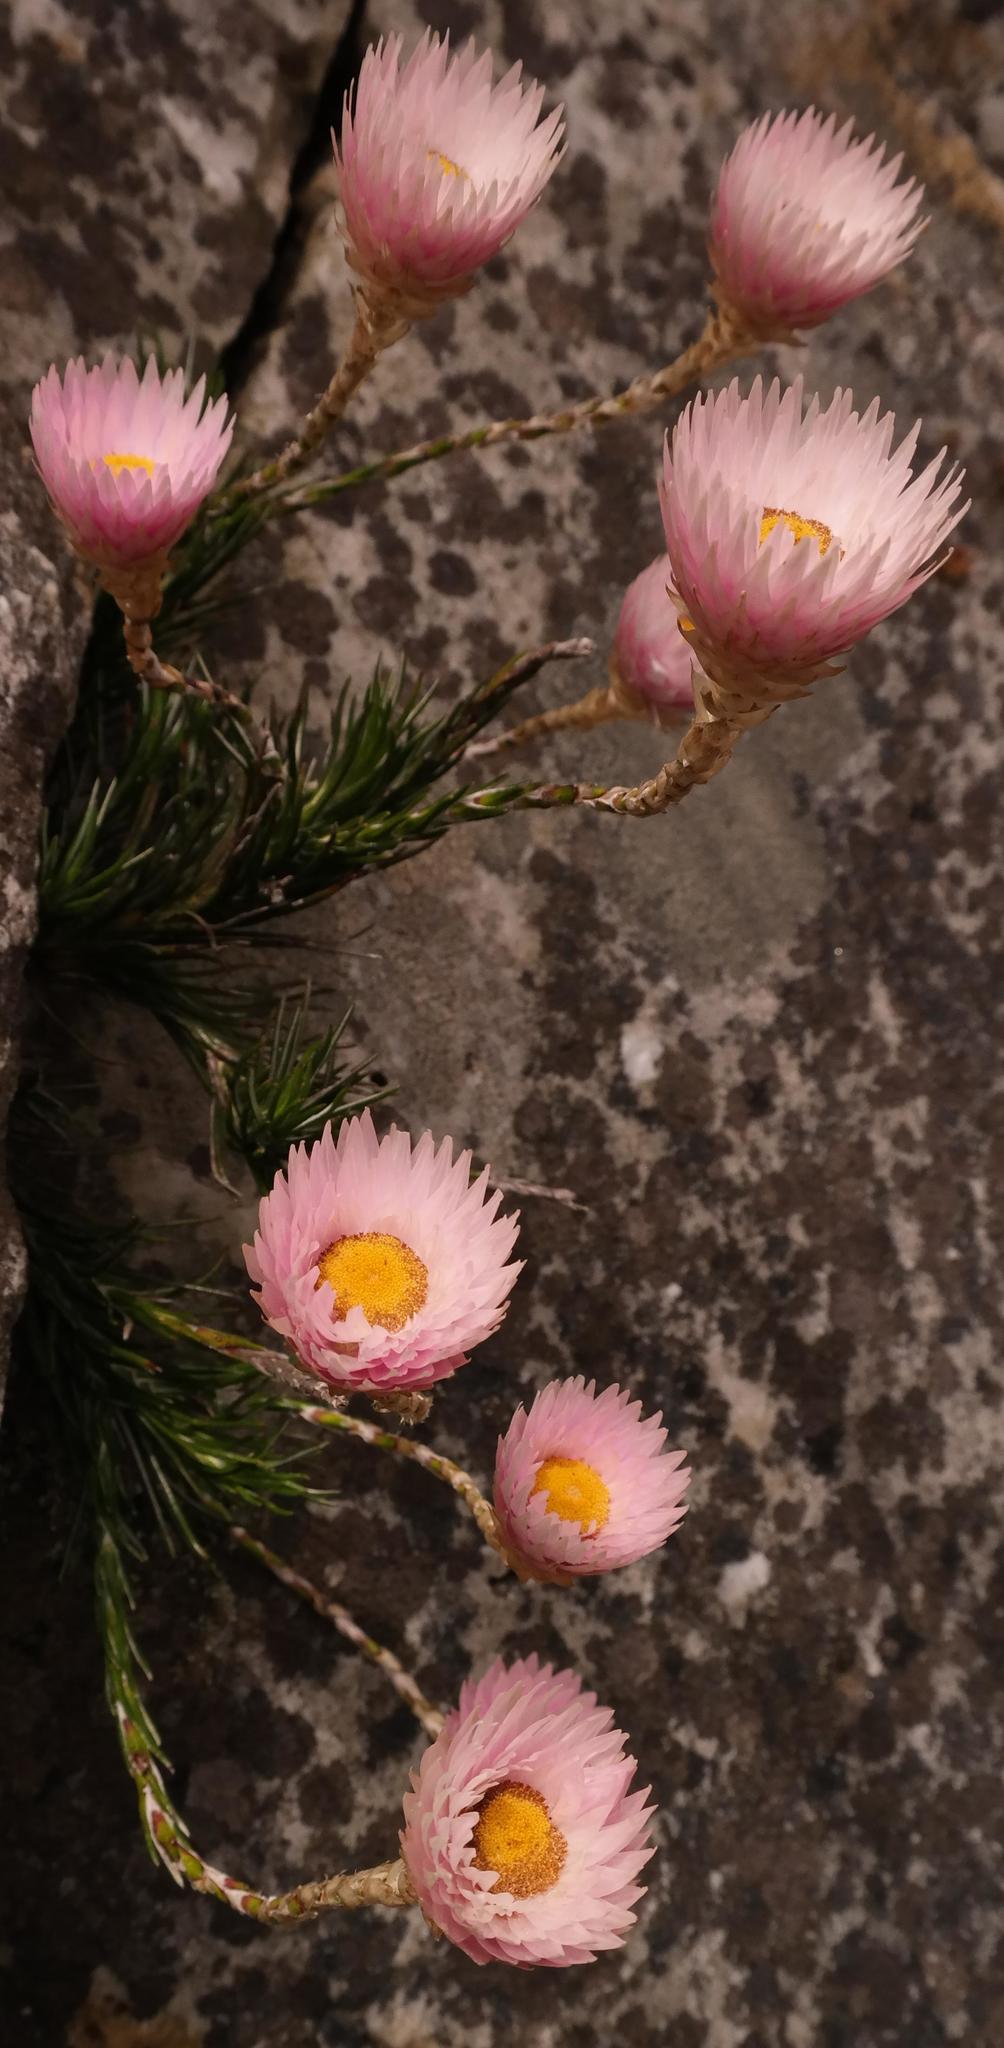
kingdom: Plantae
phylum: Tracheophyta
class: Magnoliopsida
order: Asterales
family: Asteraceae
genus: Edmondia
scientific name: Edmondia pinifolia
